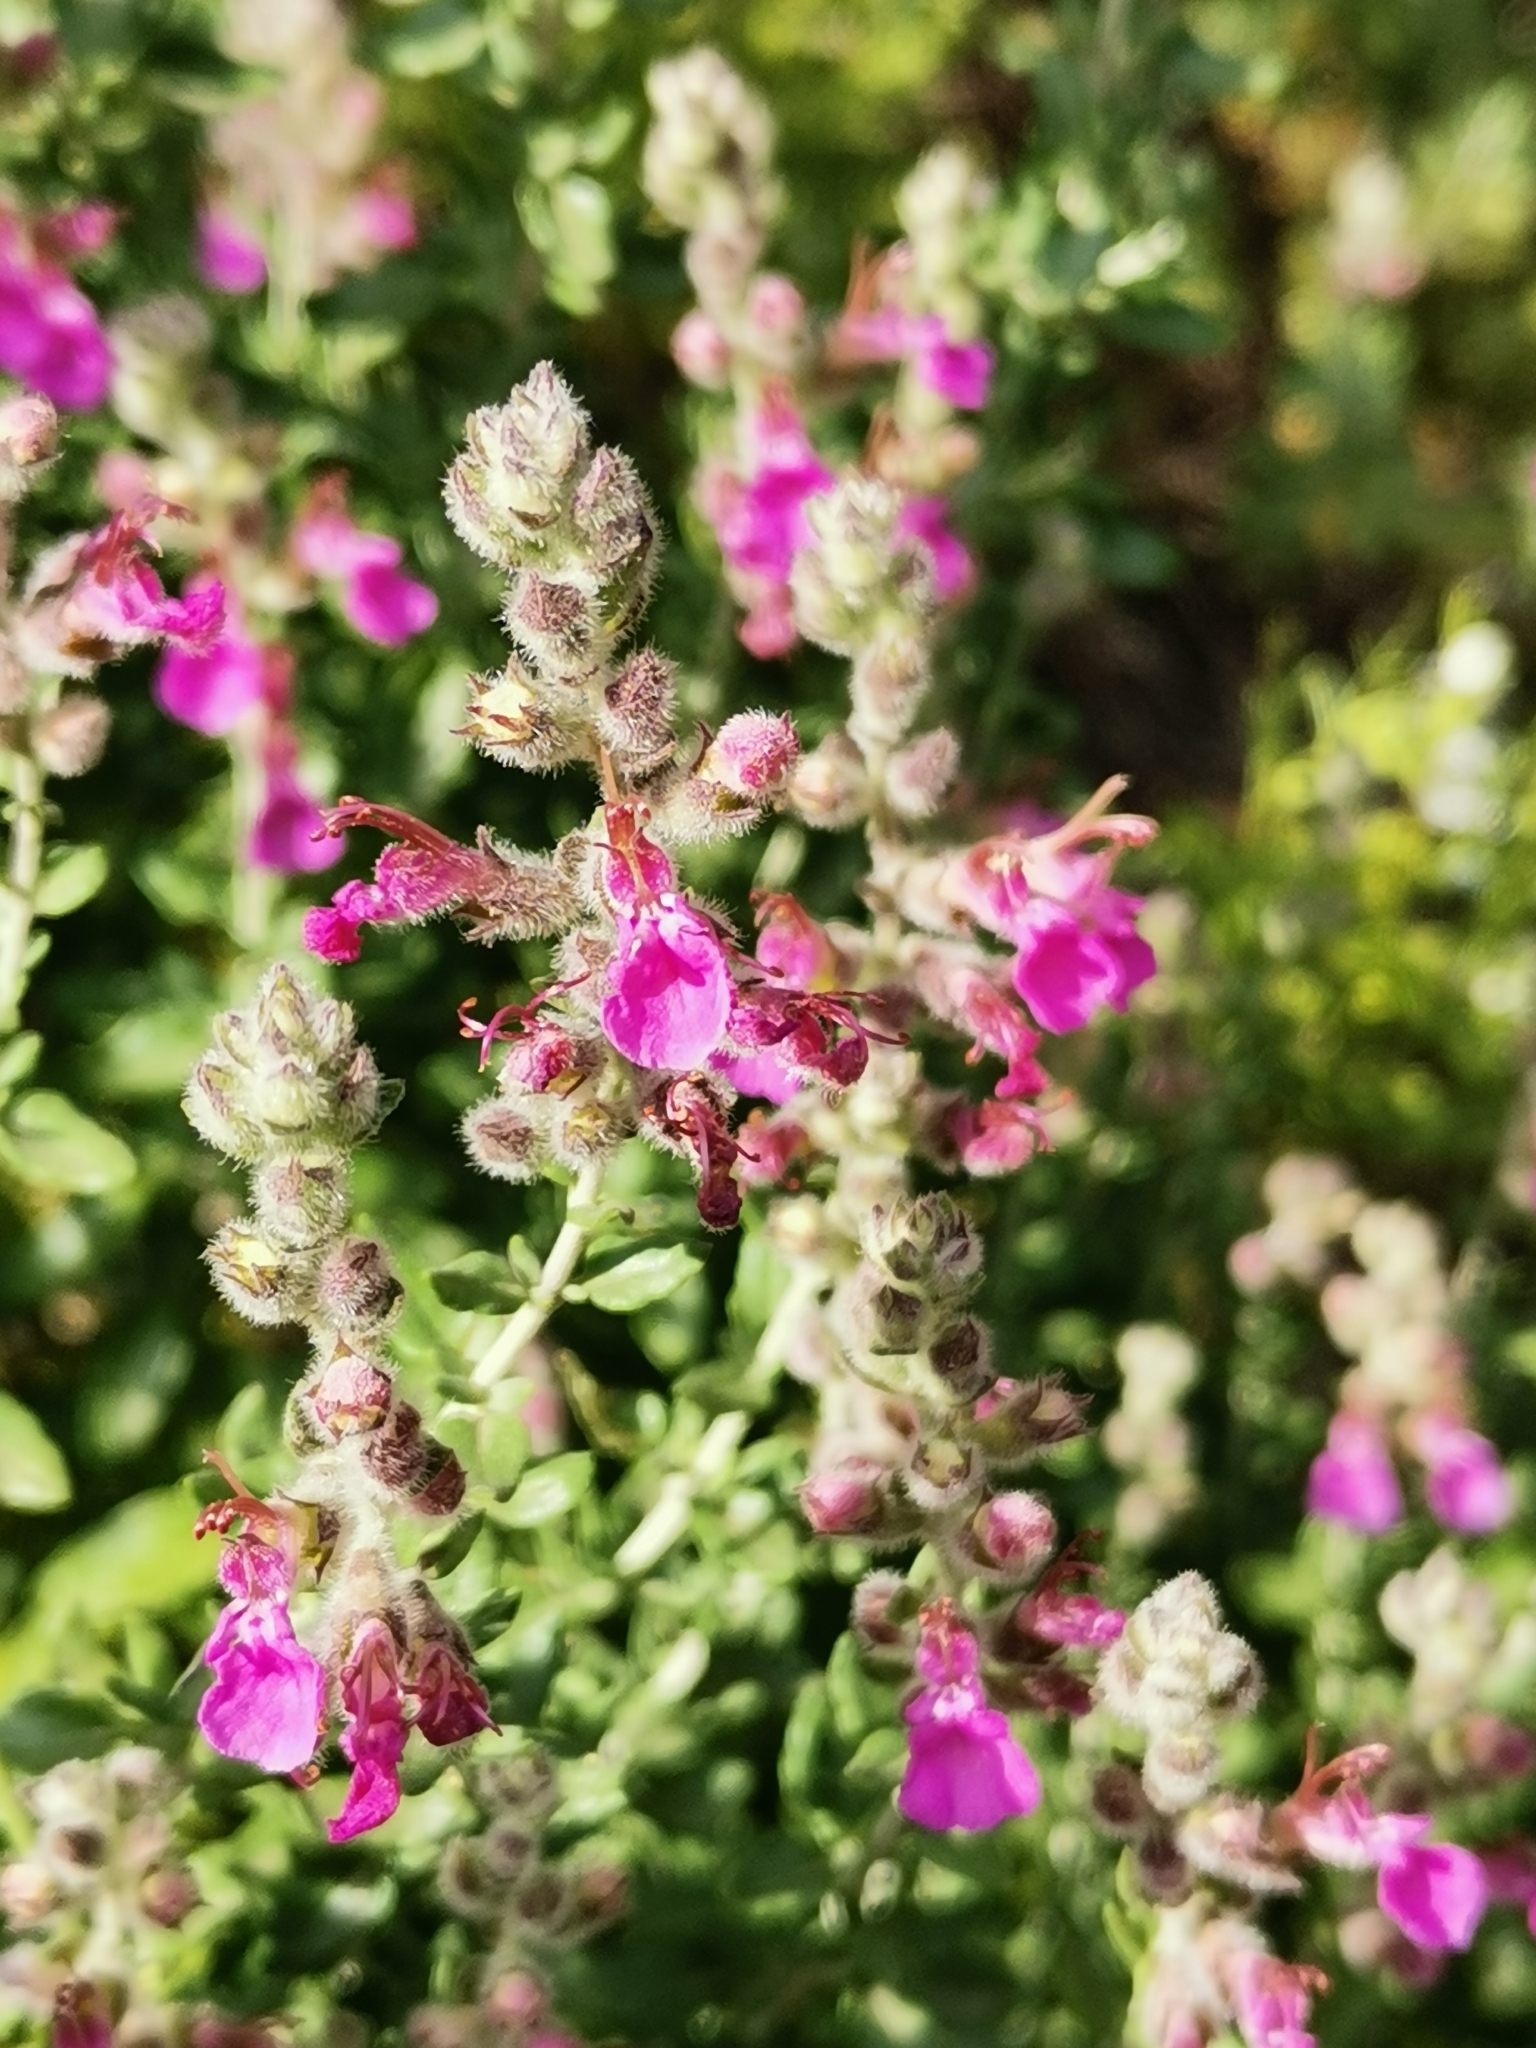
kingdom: Plantae
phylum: Tracheophyta
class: Magnoliopsida
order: Lamiales
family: Lamiaceae
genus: Teucrium
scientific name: Teucrium marum
